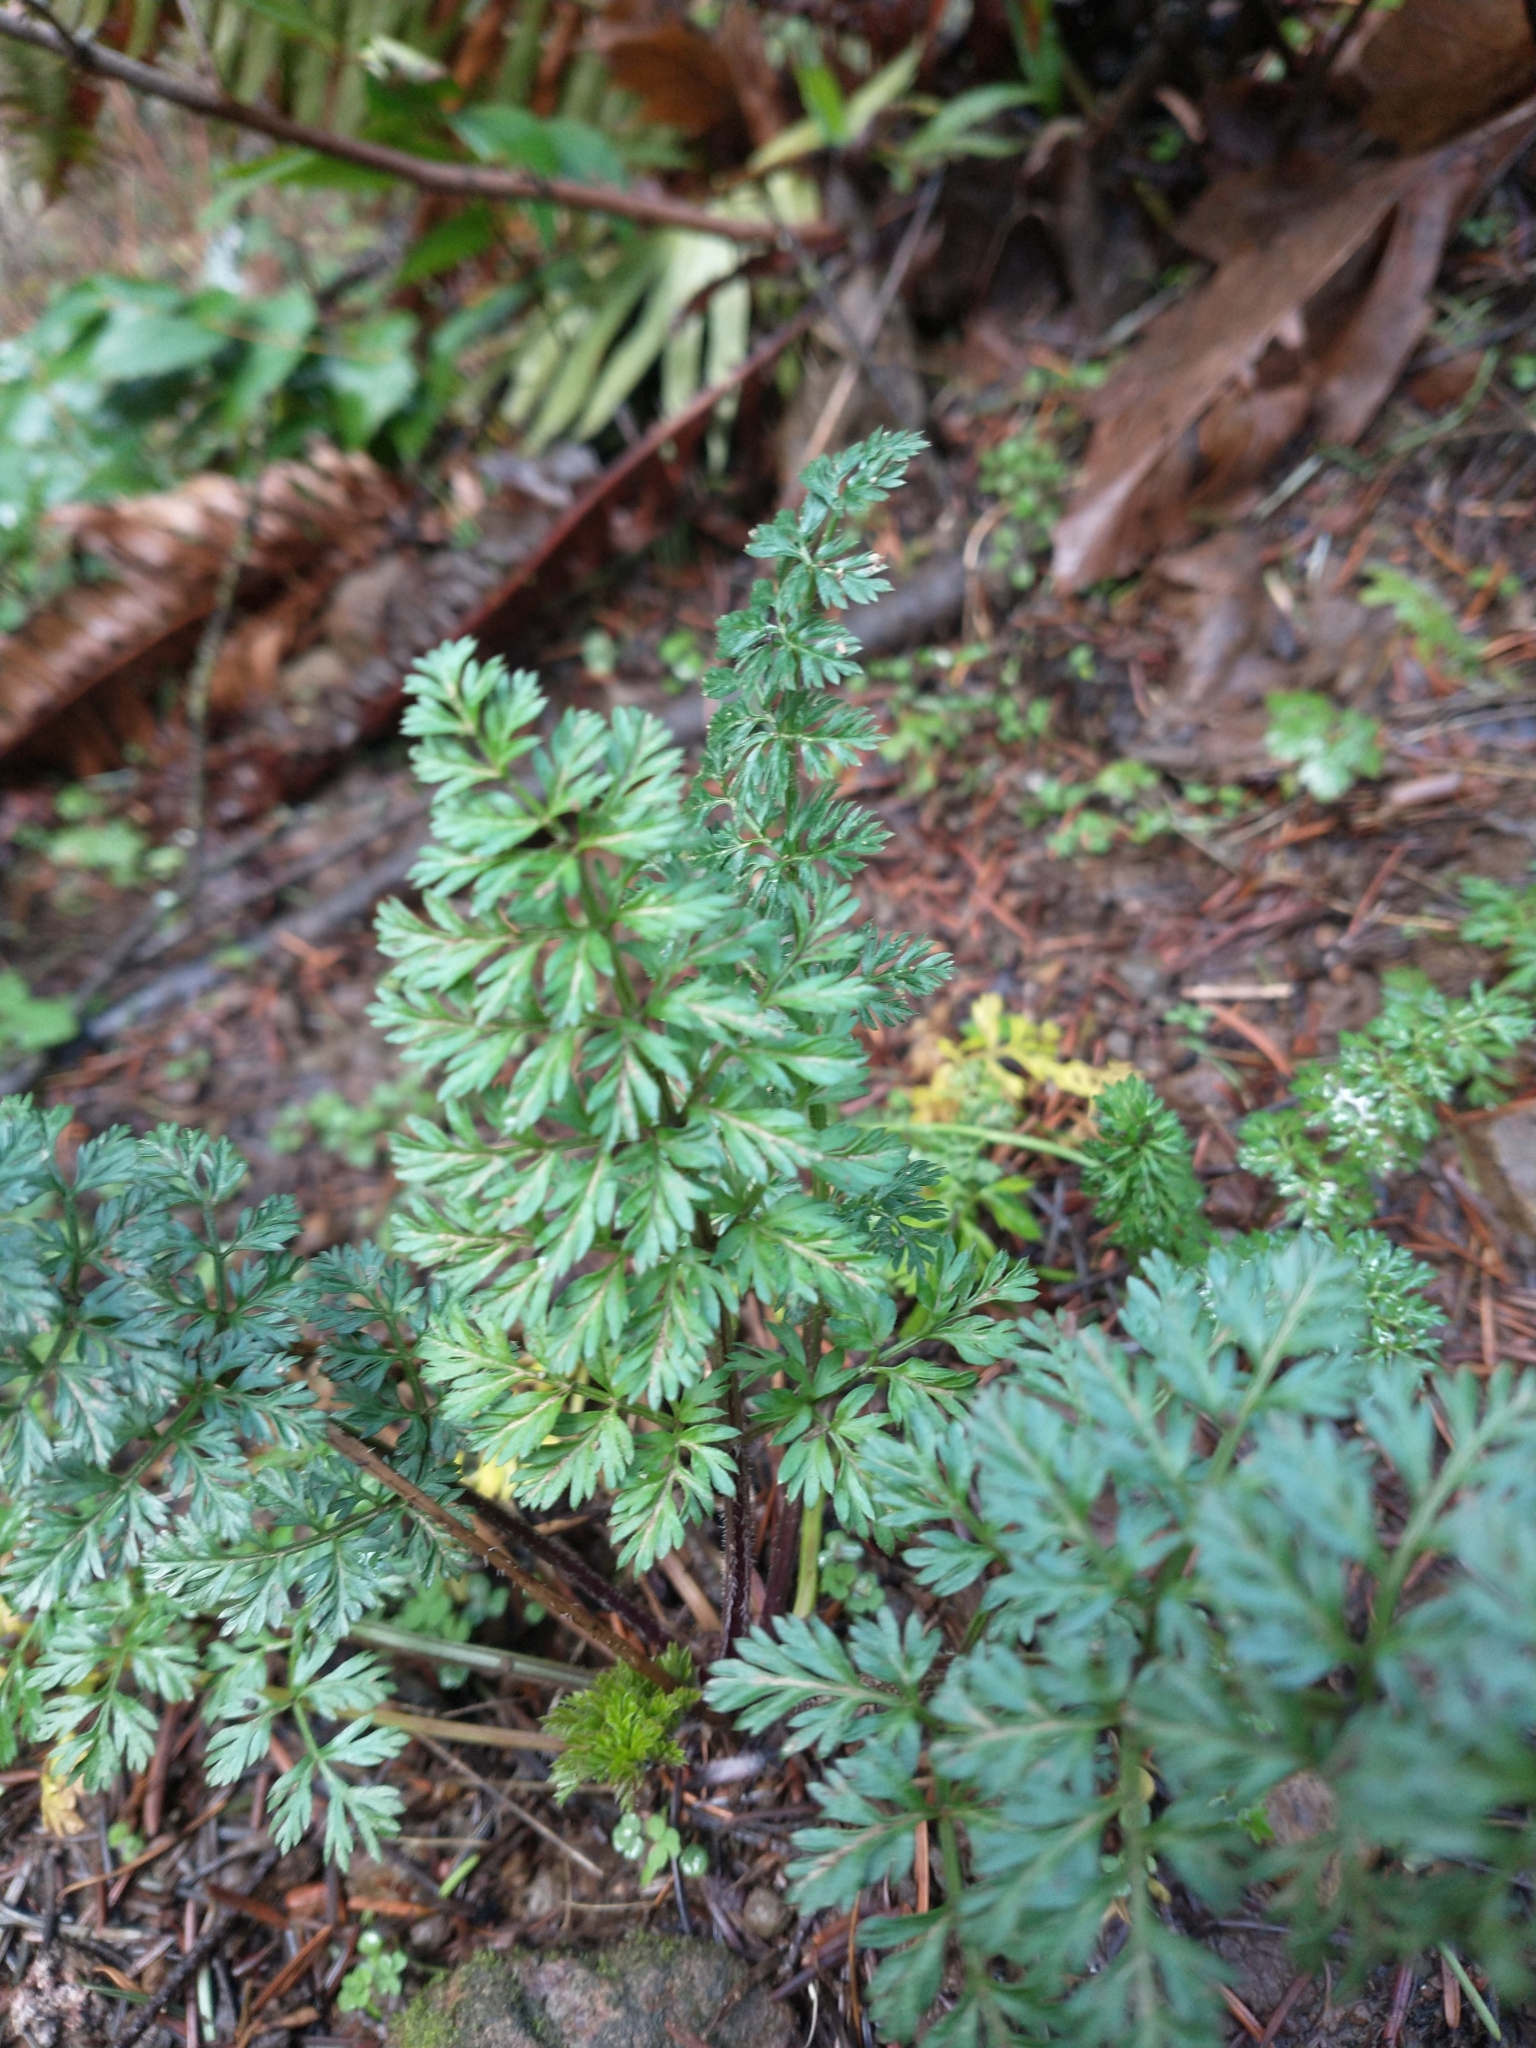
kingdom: Plantae
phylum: Tracheophyta
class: Magnoliopsida
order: Apiales
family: Apiaceae
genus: Daucus
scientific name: Daucus carota
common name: Wild carrot
